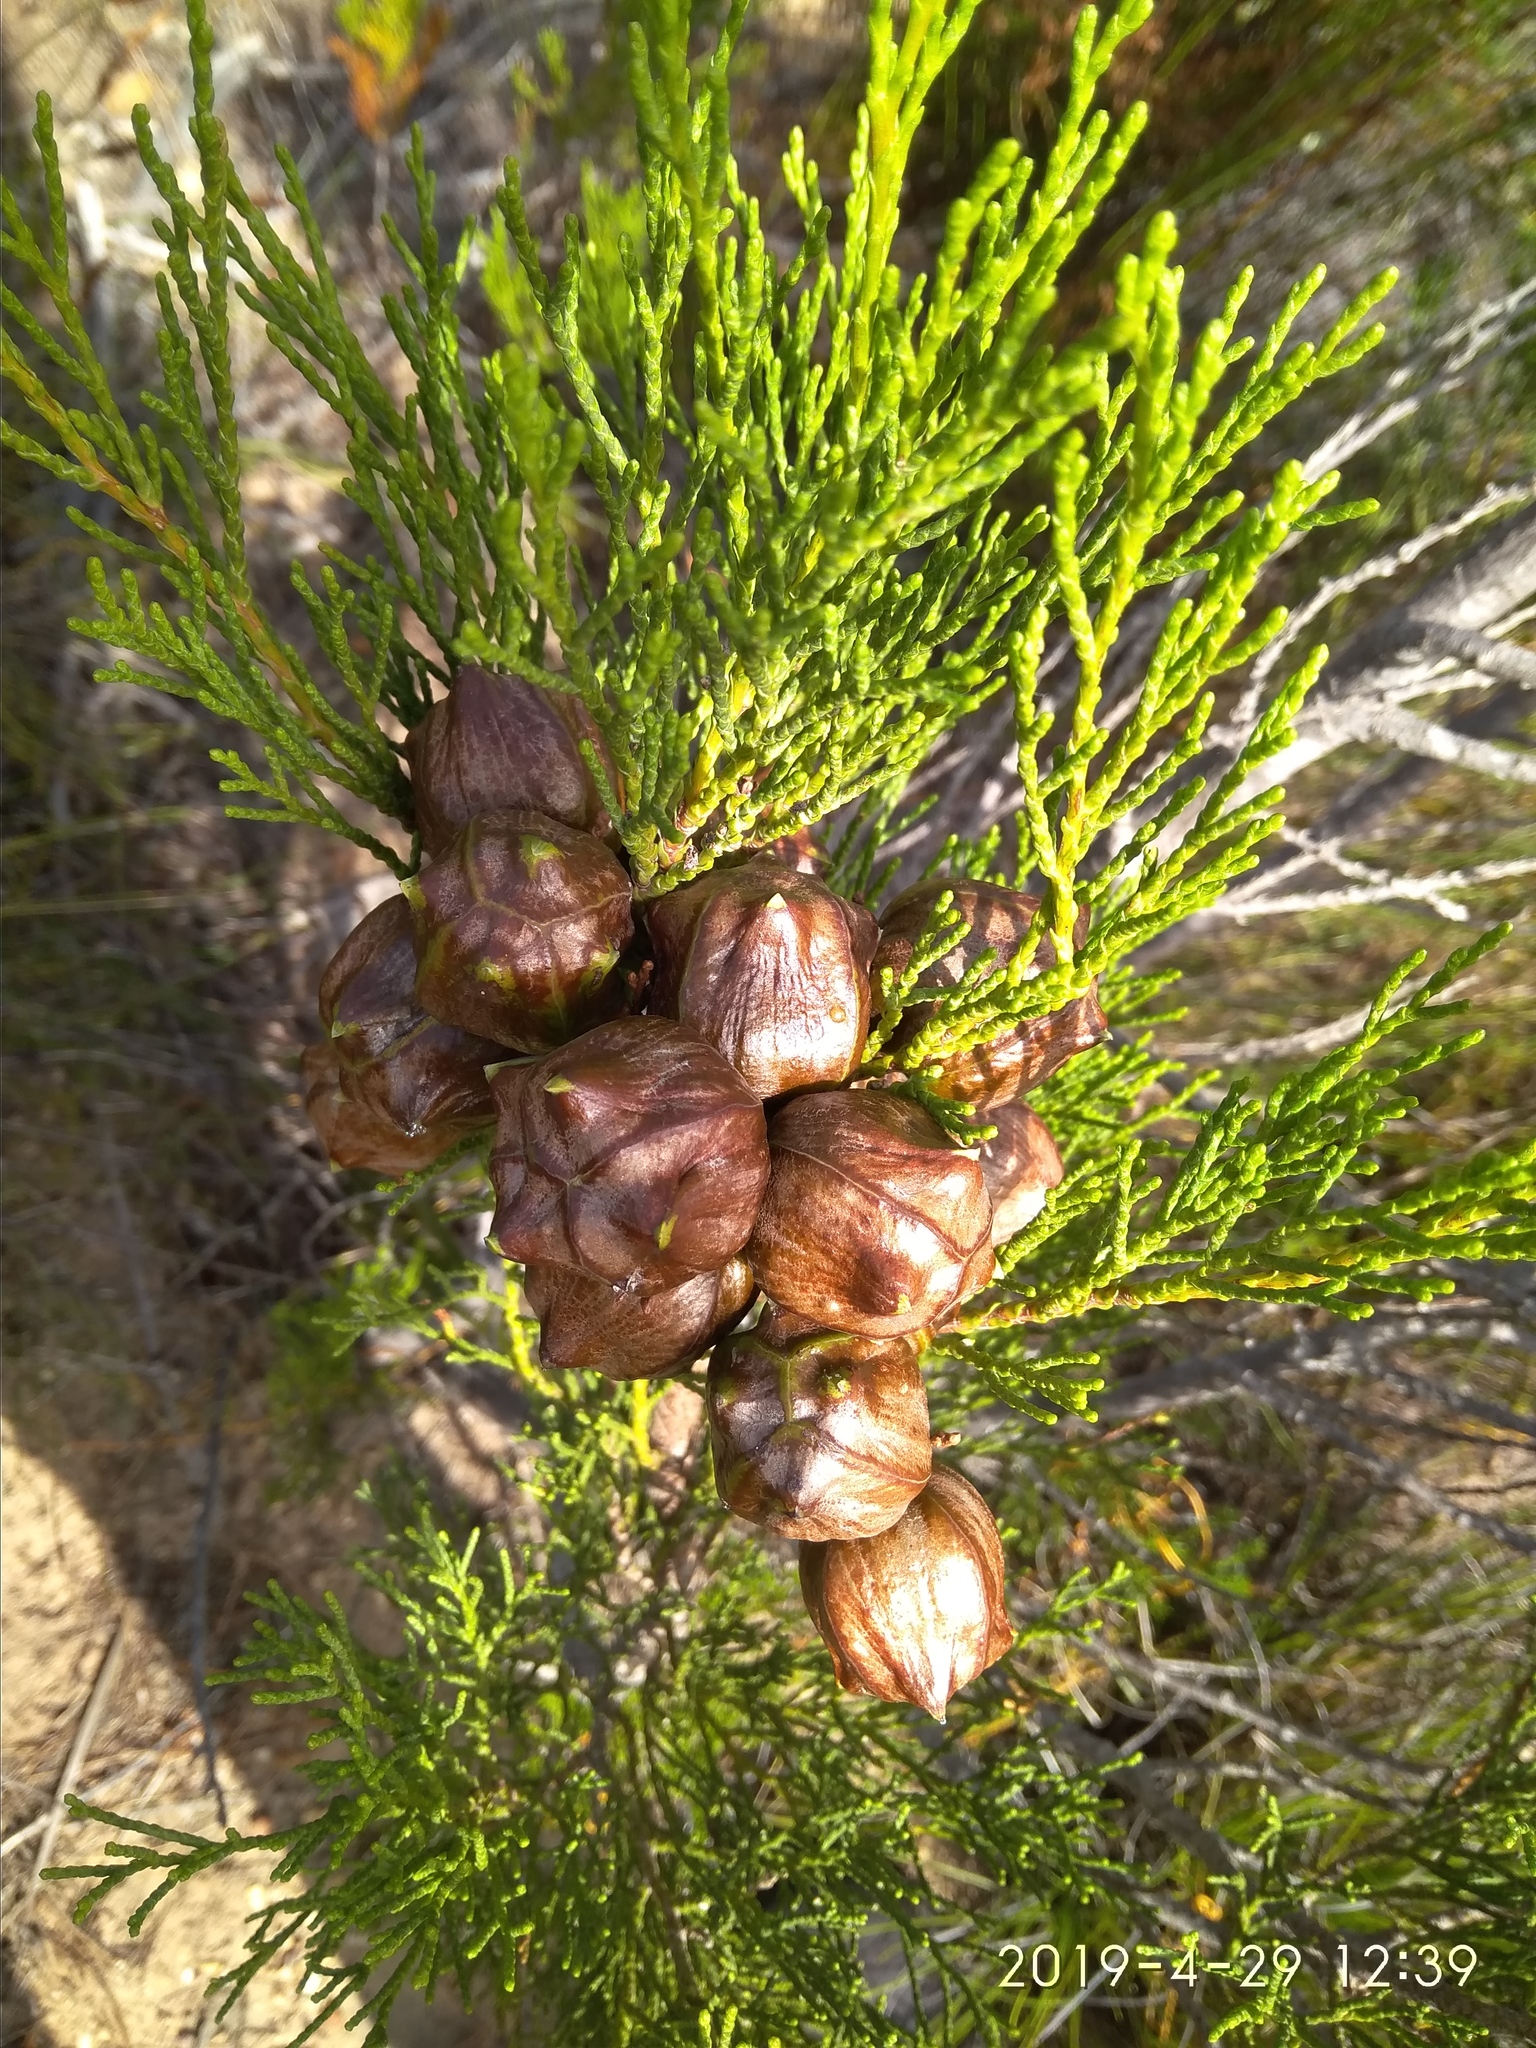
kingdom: Plantae
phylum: Tracheophyta
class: Pinopsida
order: Pinales
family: Cupressaceae
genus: Widdringtonia
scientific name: Widdringtonia nodiflora
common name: Cape cypress
